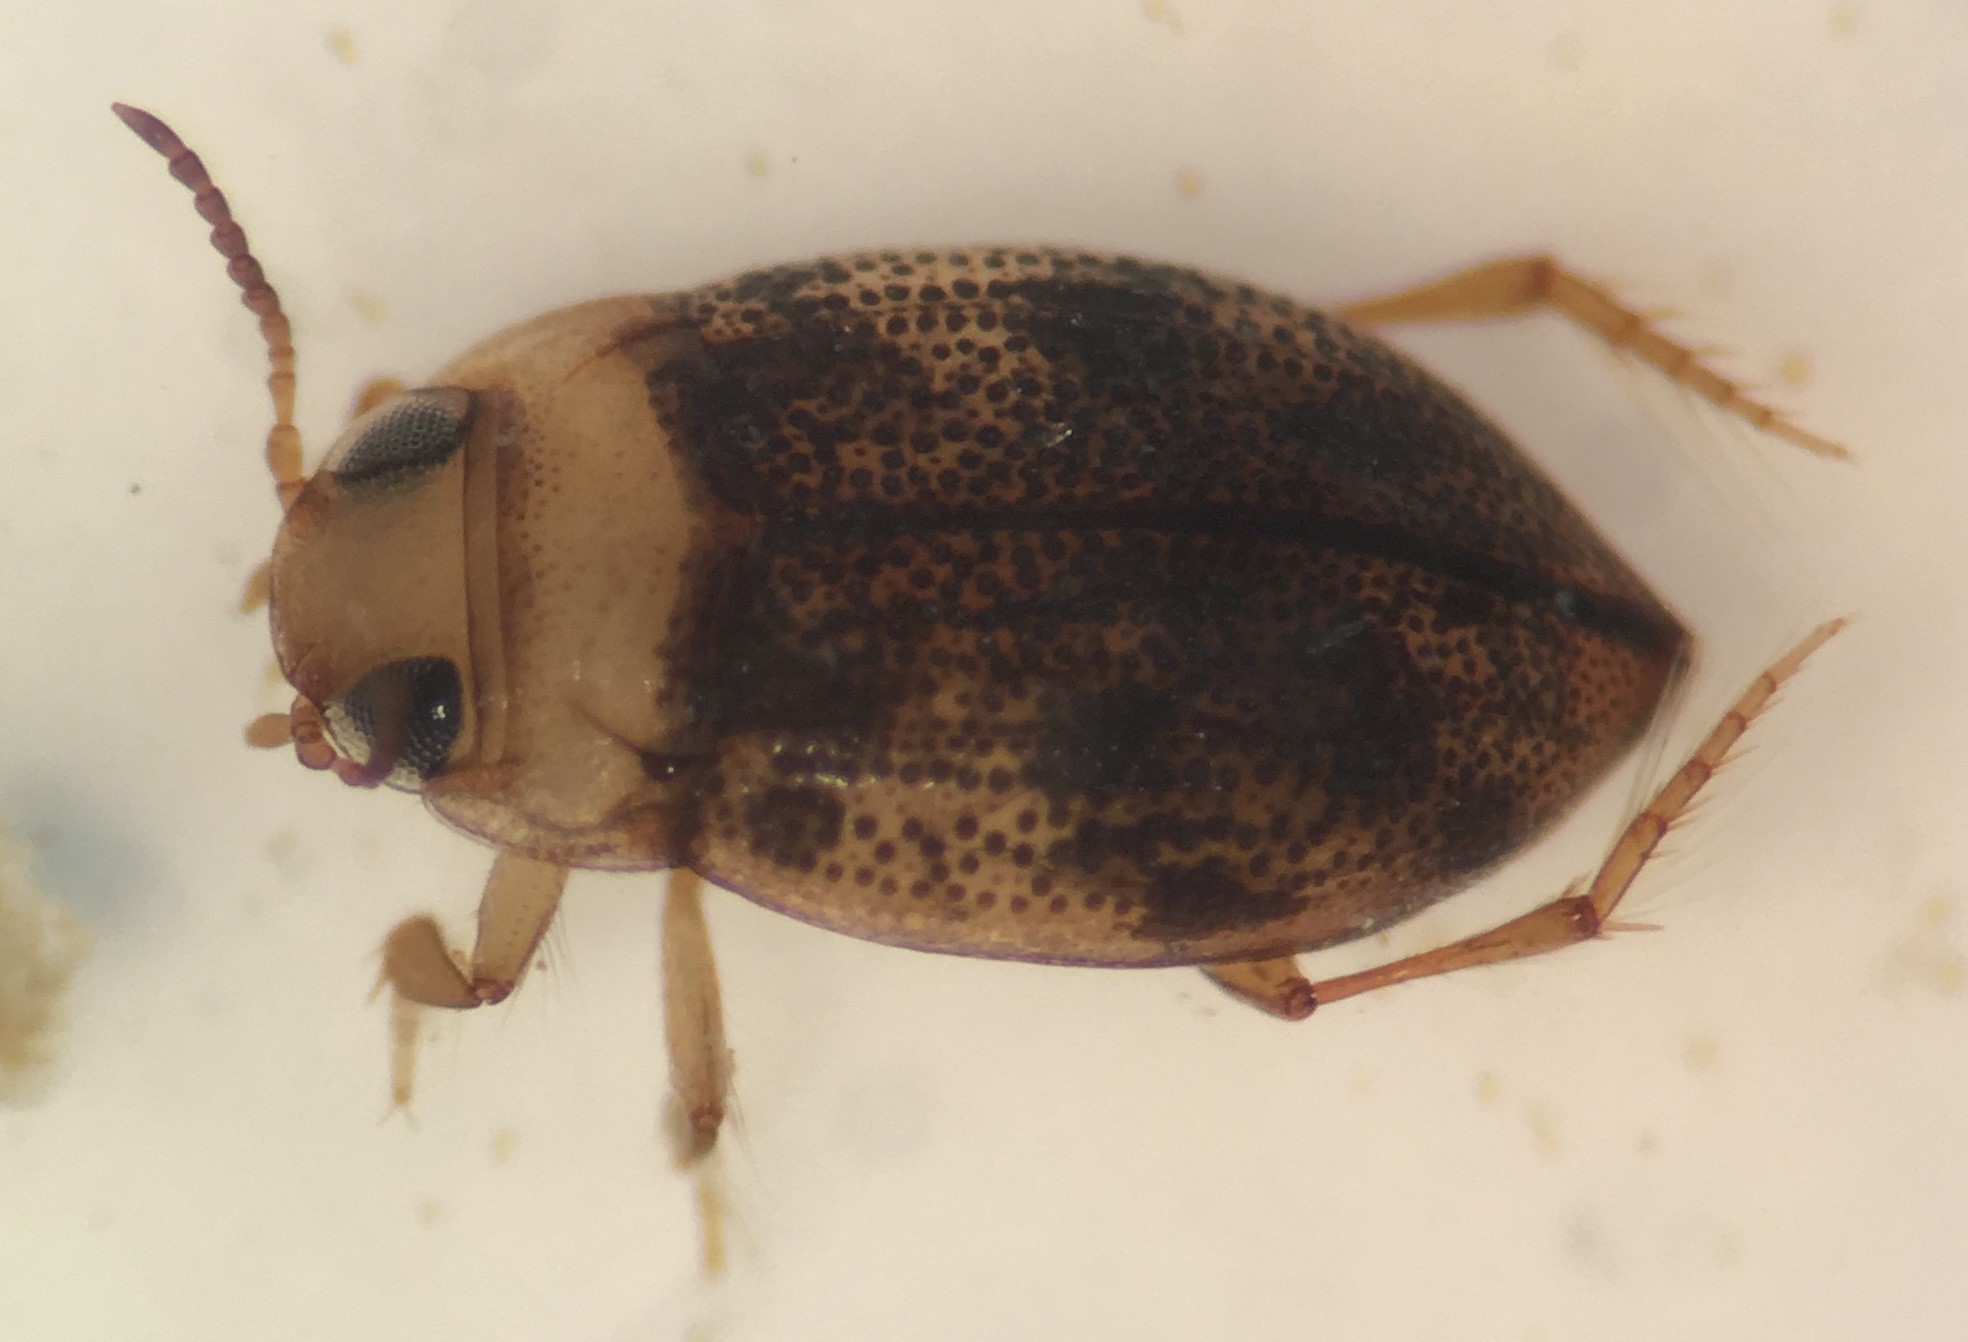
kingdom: Animalia
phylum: Arthropoda
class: Insecta
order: Coleoptera
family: Dytiscidae
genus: Anodocheilus
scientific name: Anodocheilus exiguus
